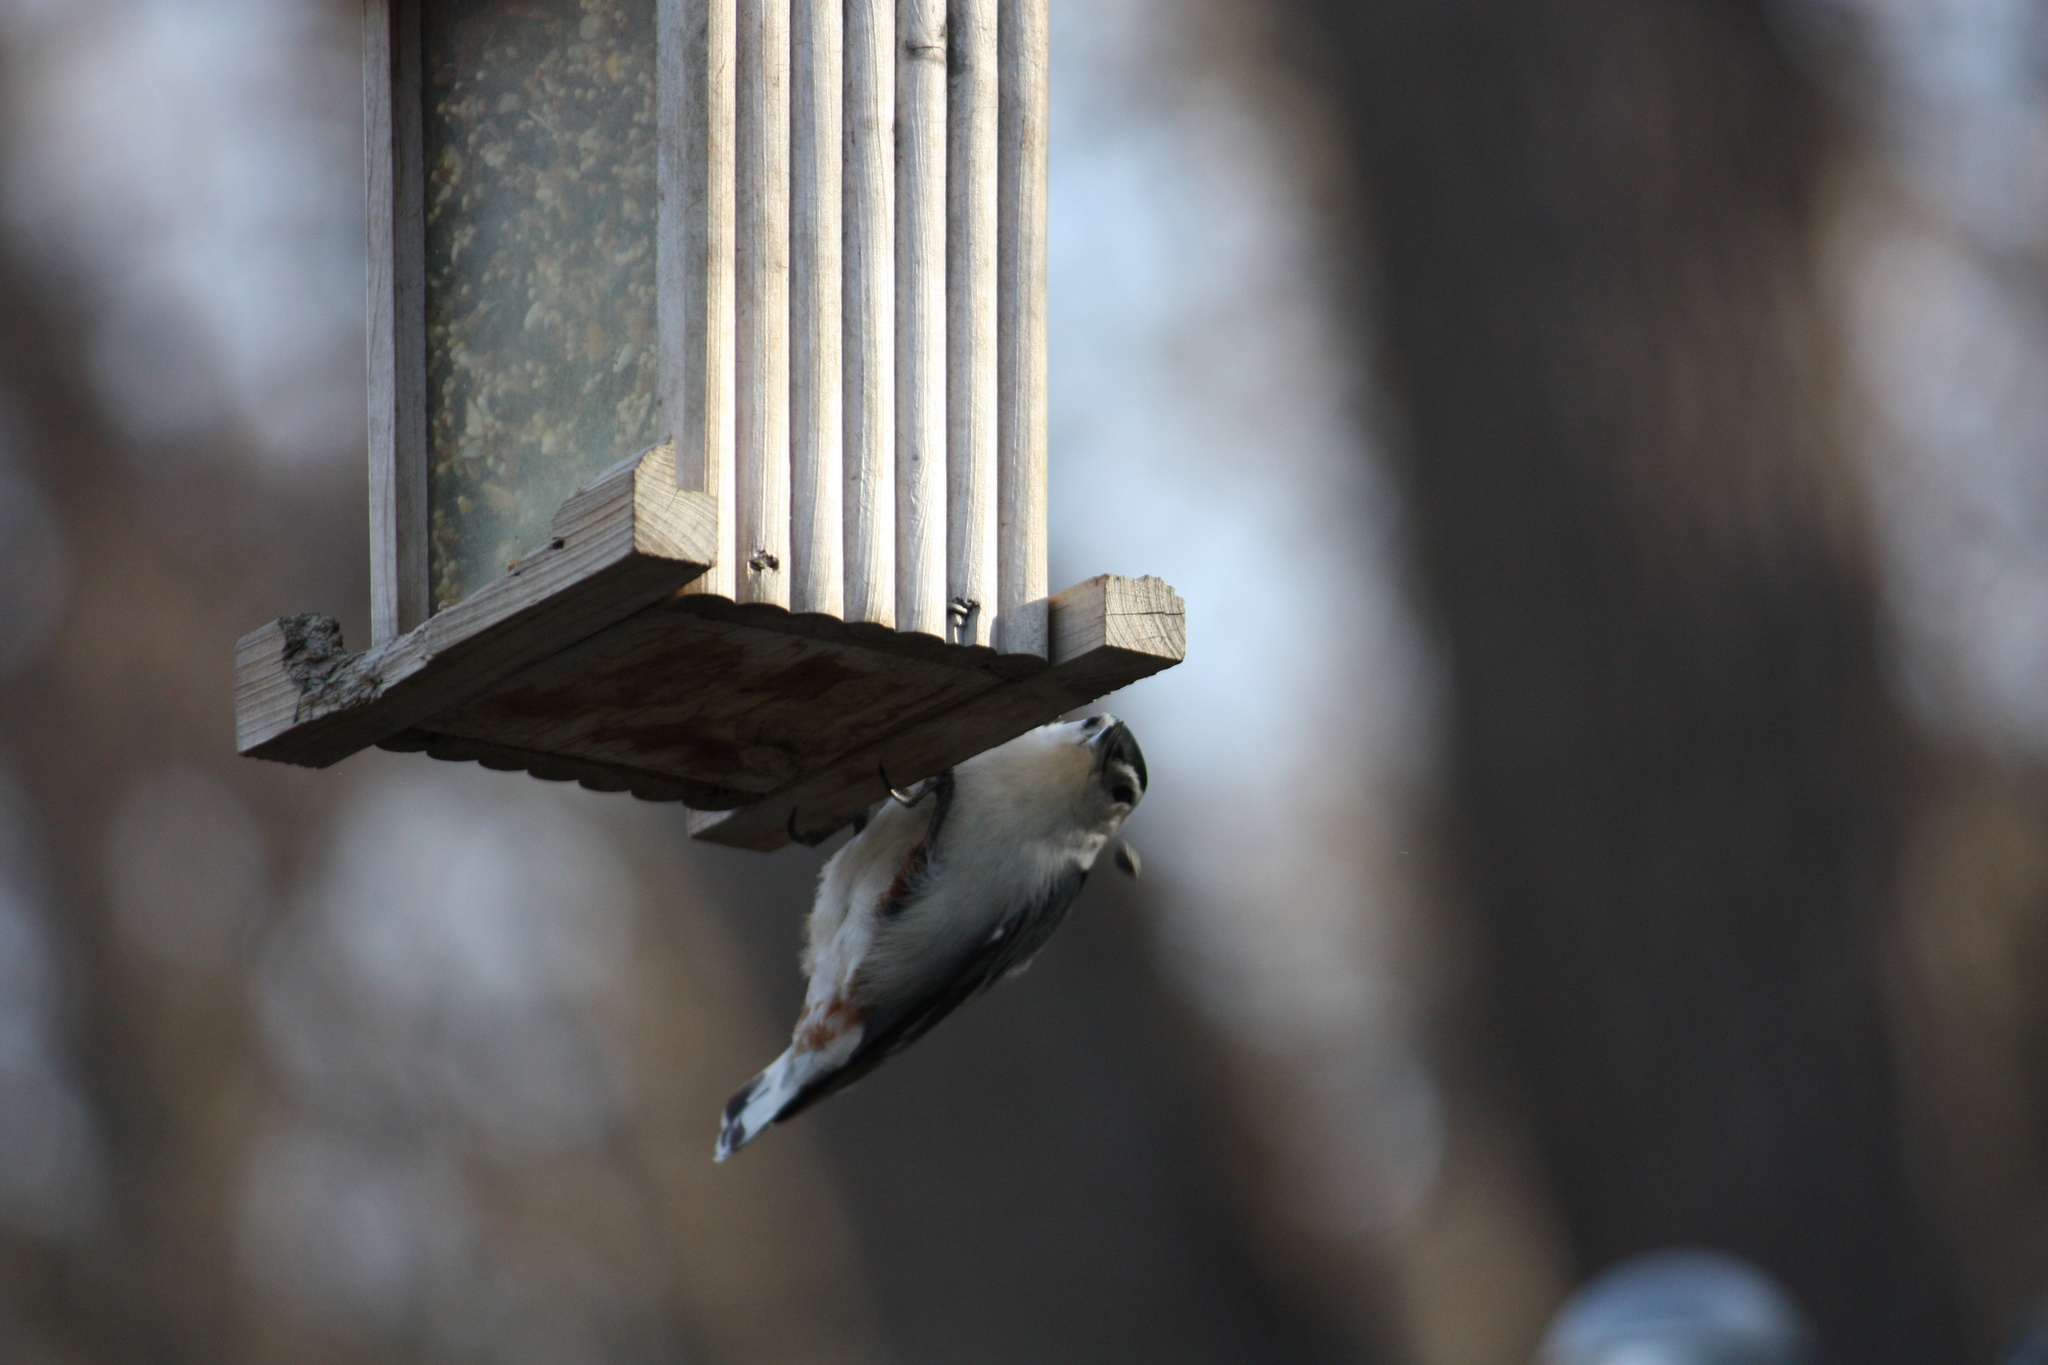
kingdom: Animalia
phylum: Chordata
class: Aves
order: Passeriformes
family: Sittidae
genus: Sitta
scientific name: Sitta carolinensis
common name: White-breasted nuthatch
